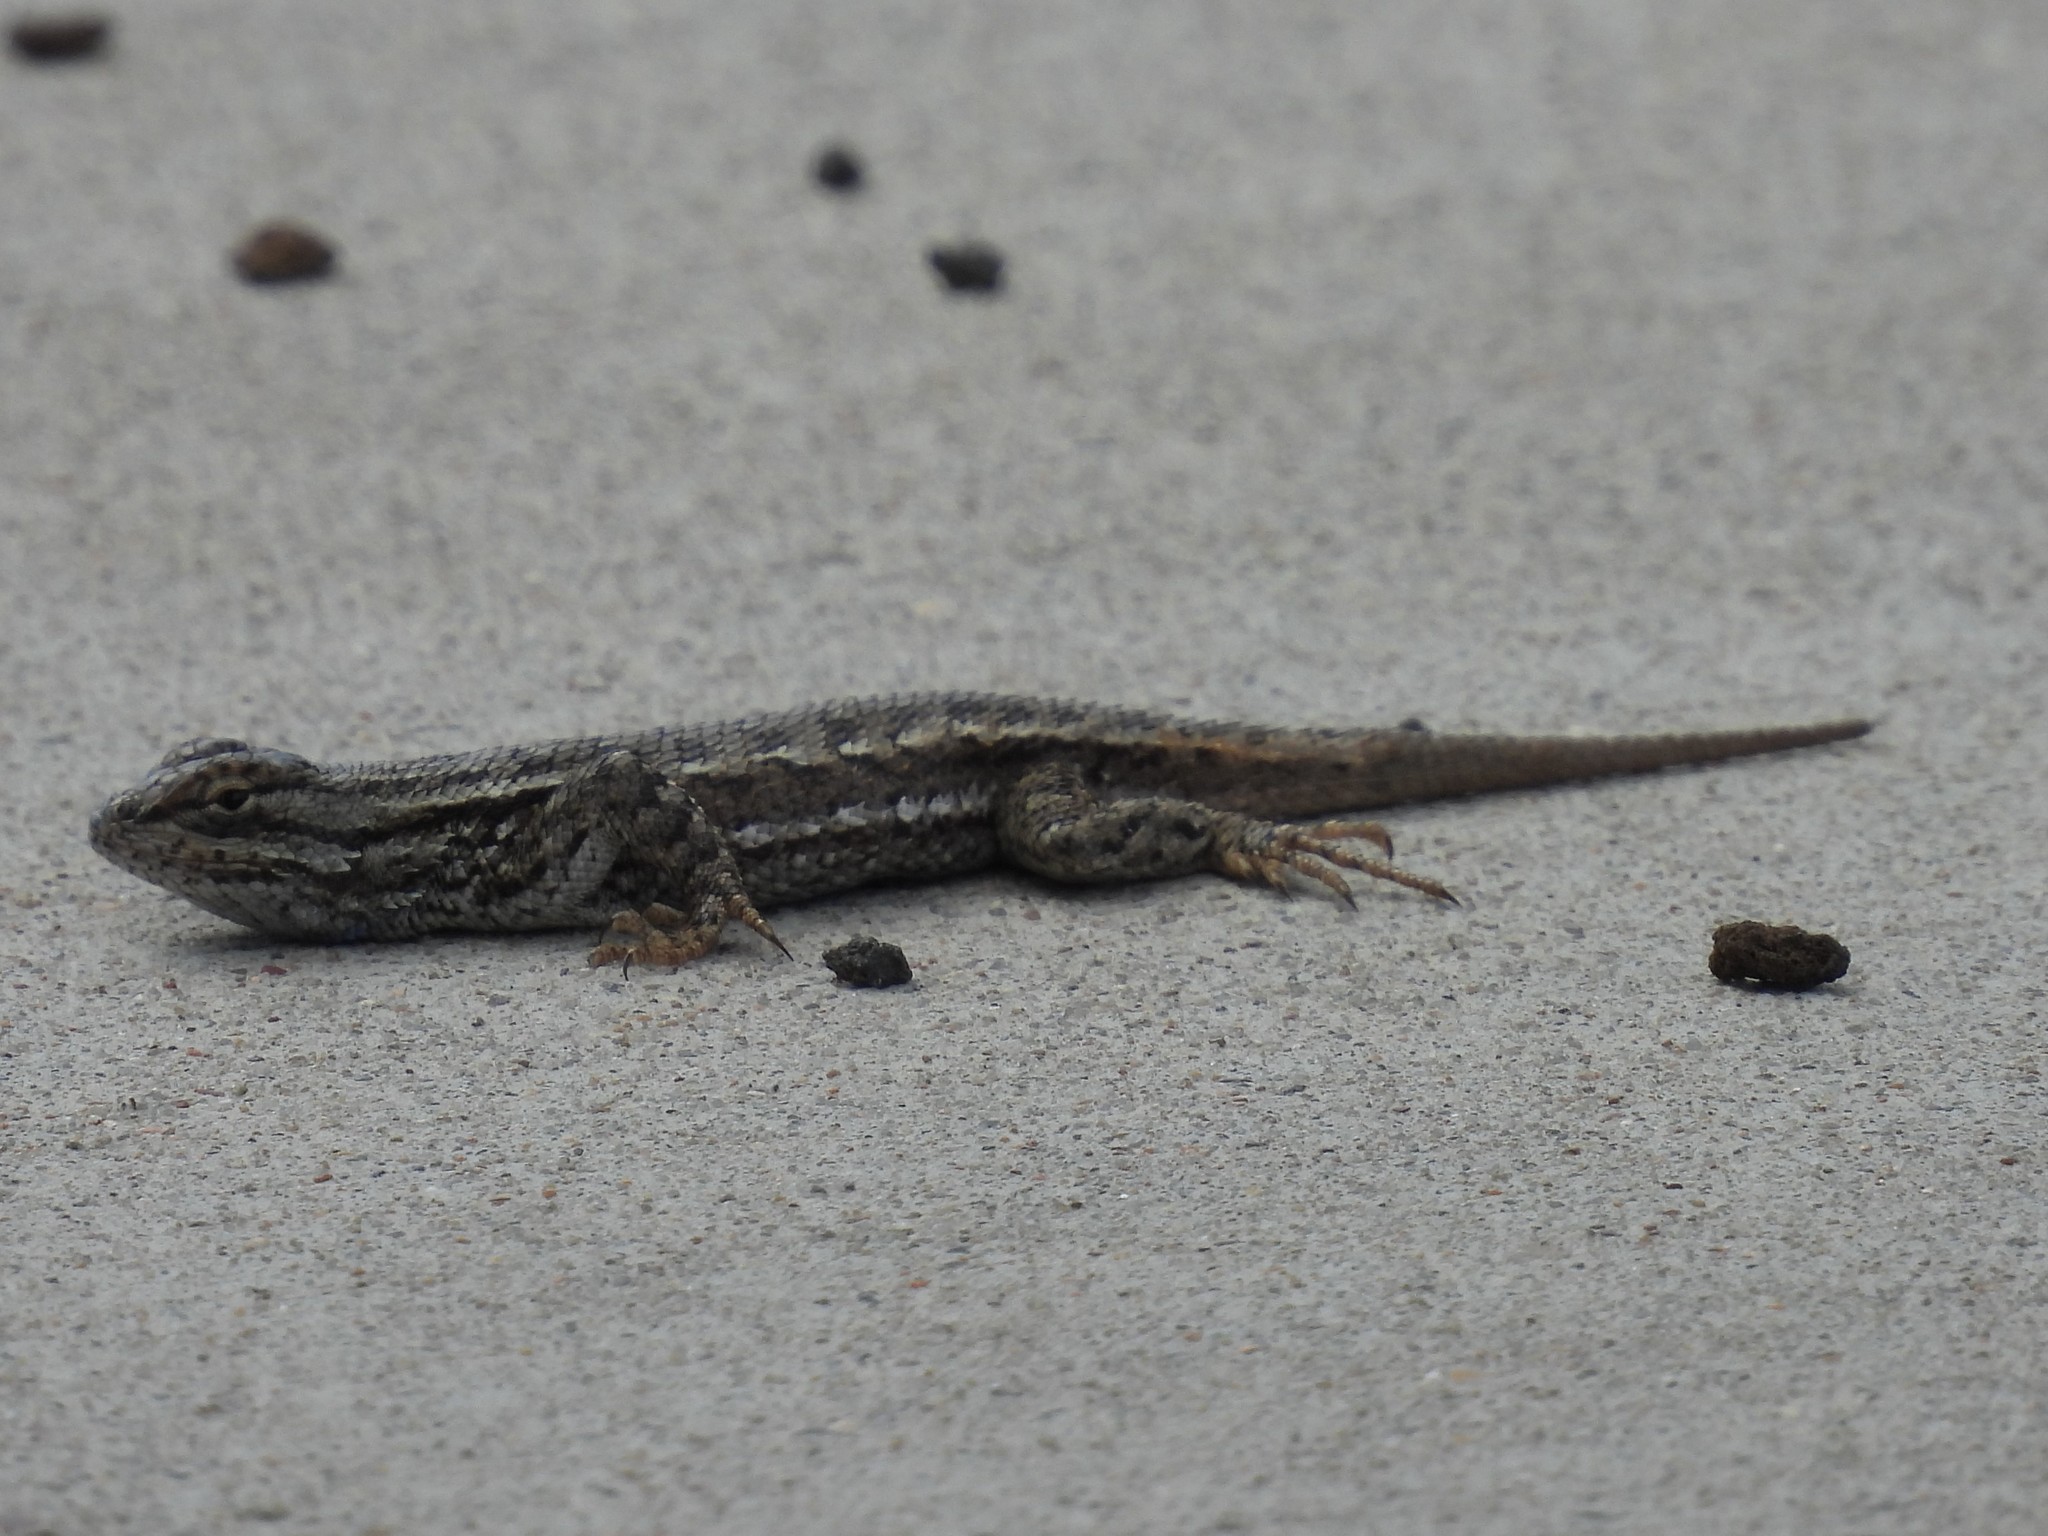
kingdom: Animalia
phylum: Chordata
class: Squamata
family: Phrynosomatidae
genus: Sceloporus
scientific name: Sceloporus tristichus
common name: Plateau fence lizard
